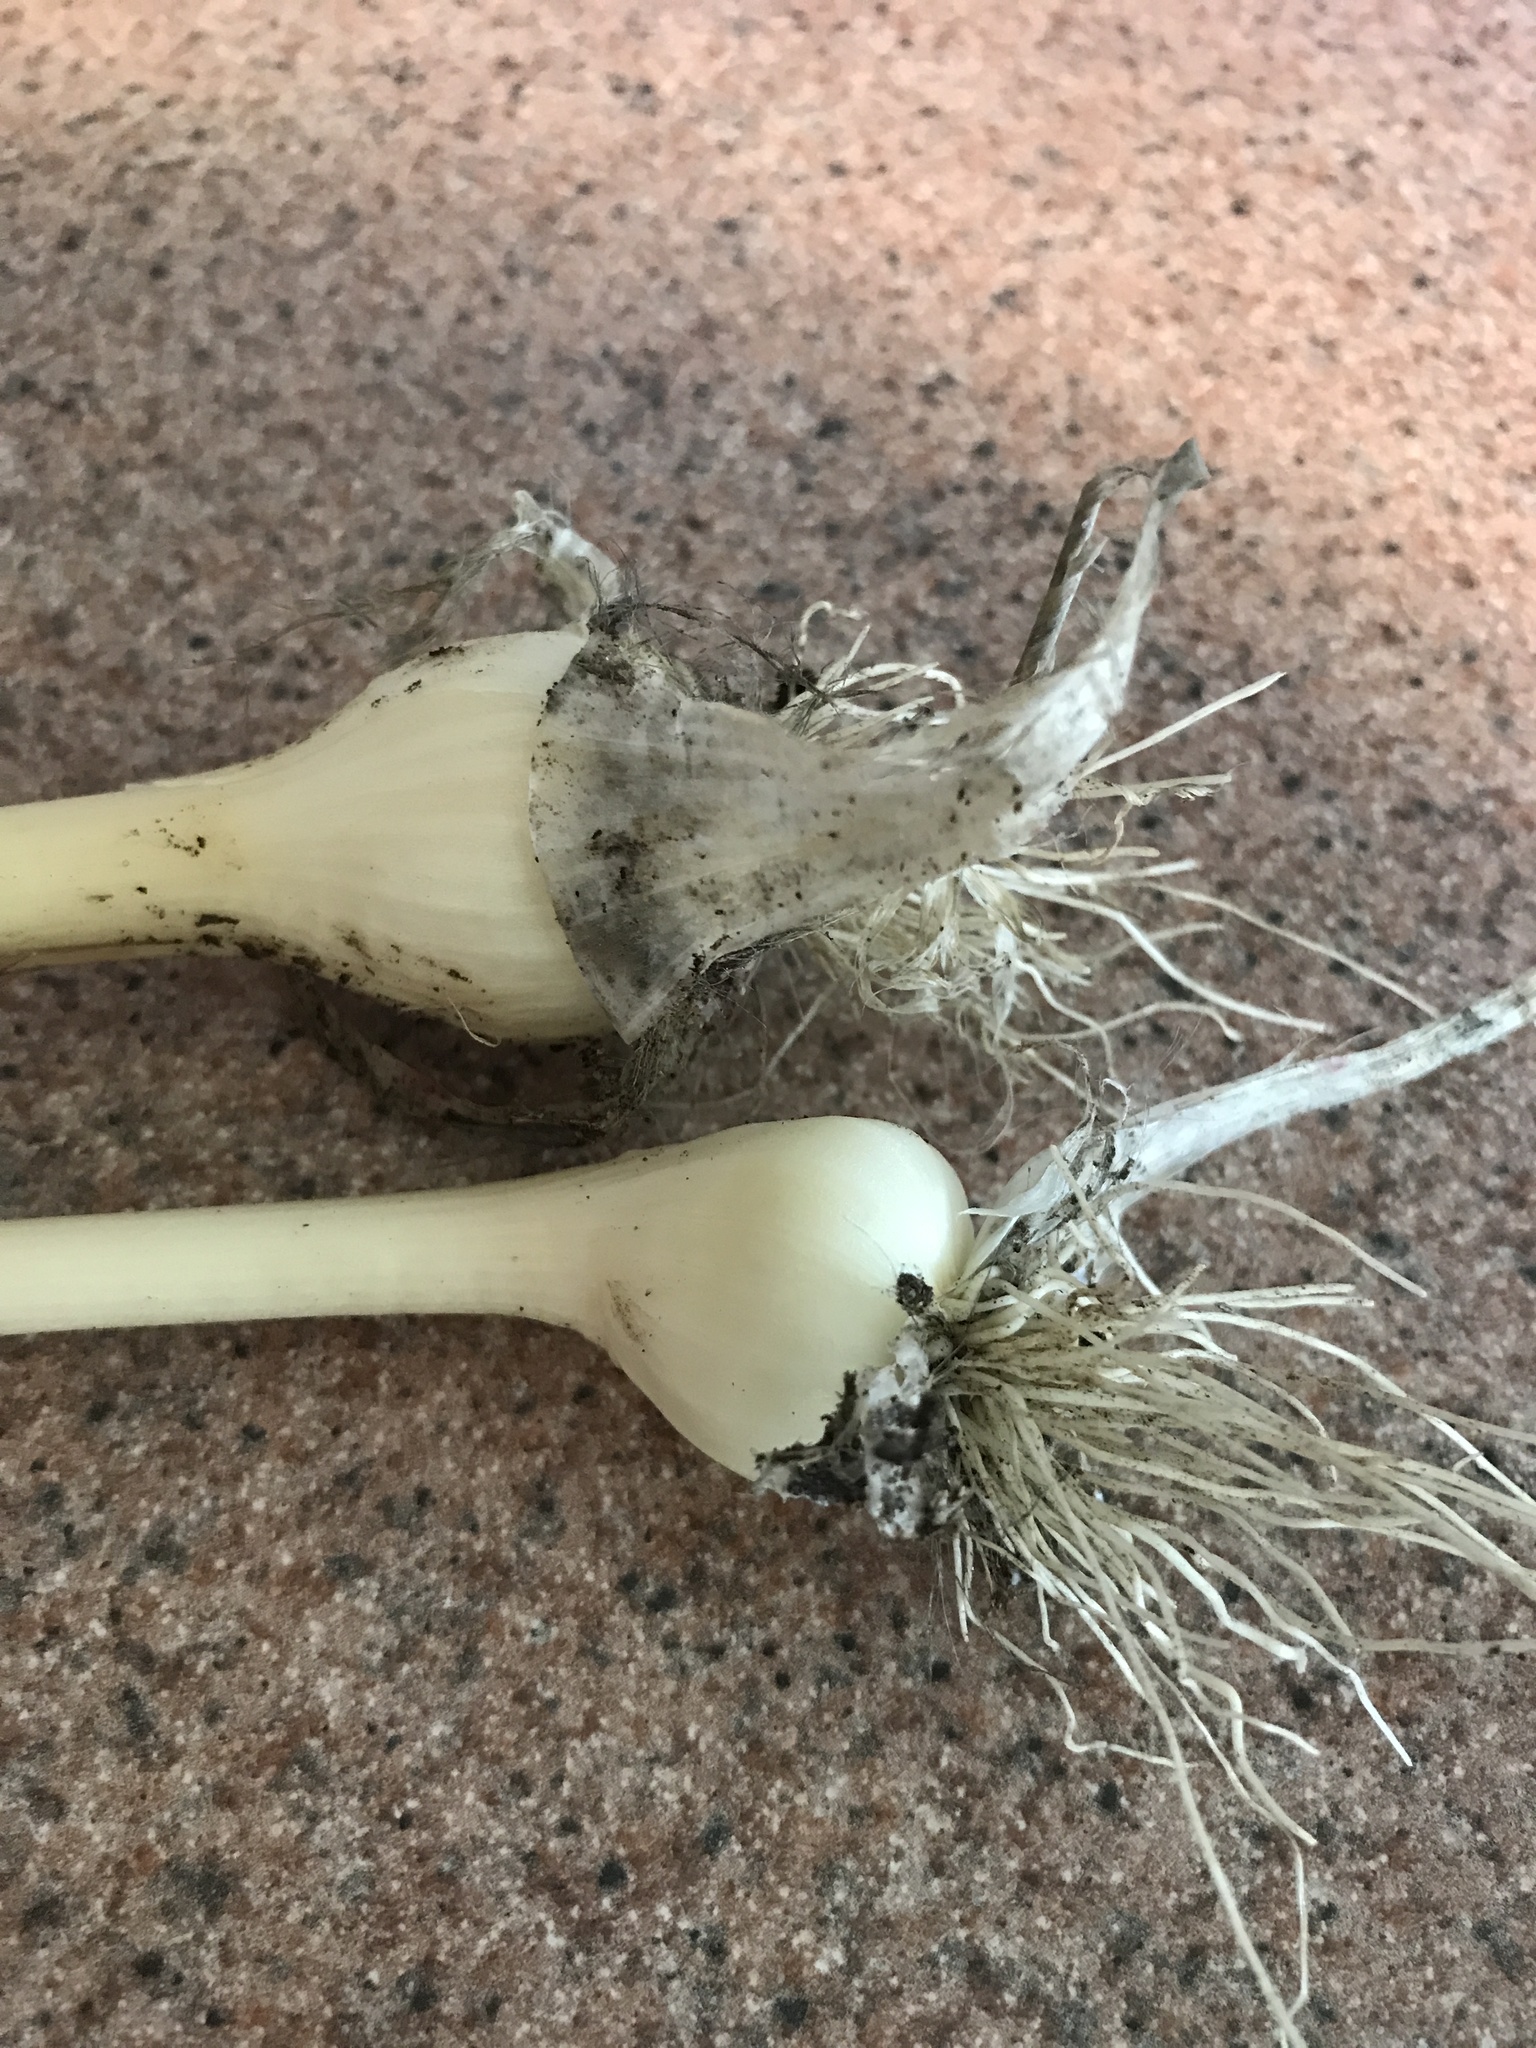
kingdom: Plantae
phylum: Tracheophyta
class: Liliopsida
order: Asparagales
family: Amaryllidaceae
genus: Allium
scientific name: Allium vineale
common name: Crow garlic
